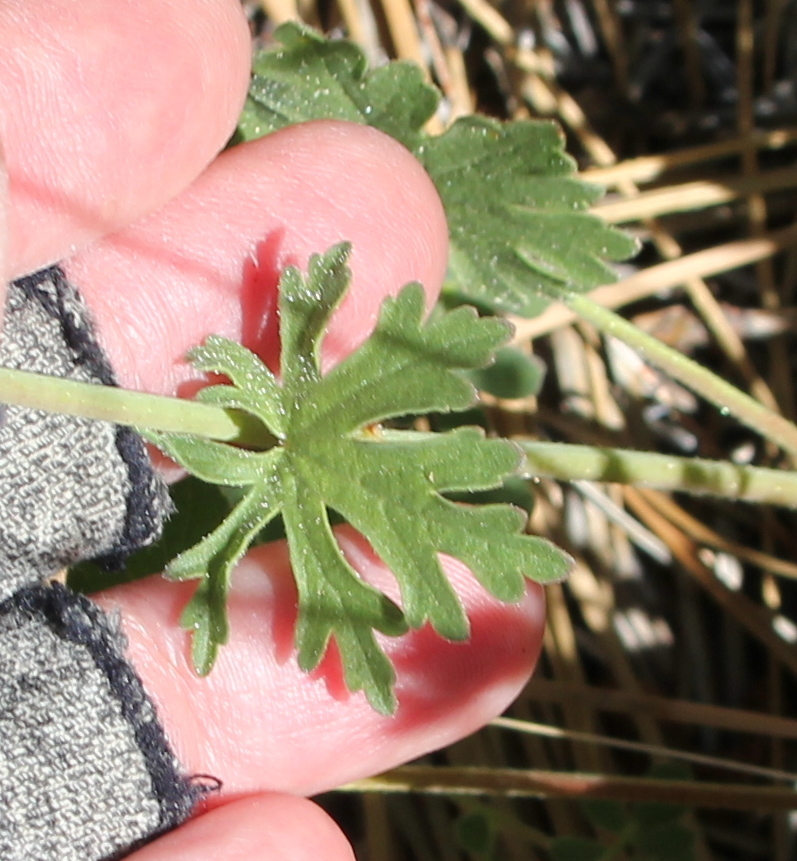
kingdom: Plantae
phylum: Tracheophyta
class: Magnoliopsida
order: Malvales
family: Malvaceae
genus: Sidalcea
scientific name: Sidalcea sparsifolia
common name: Southern checkerbloom
